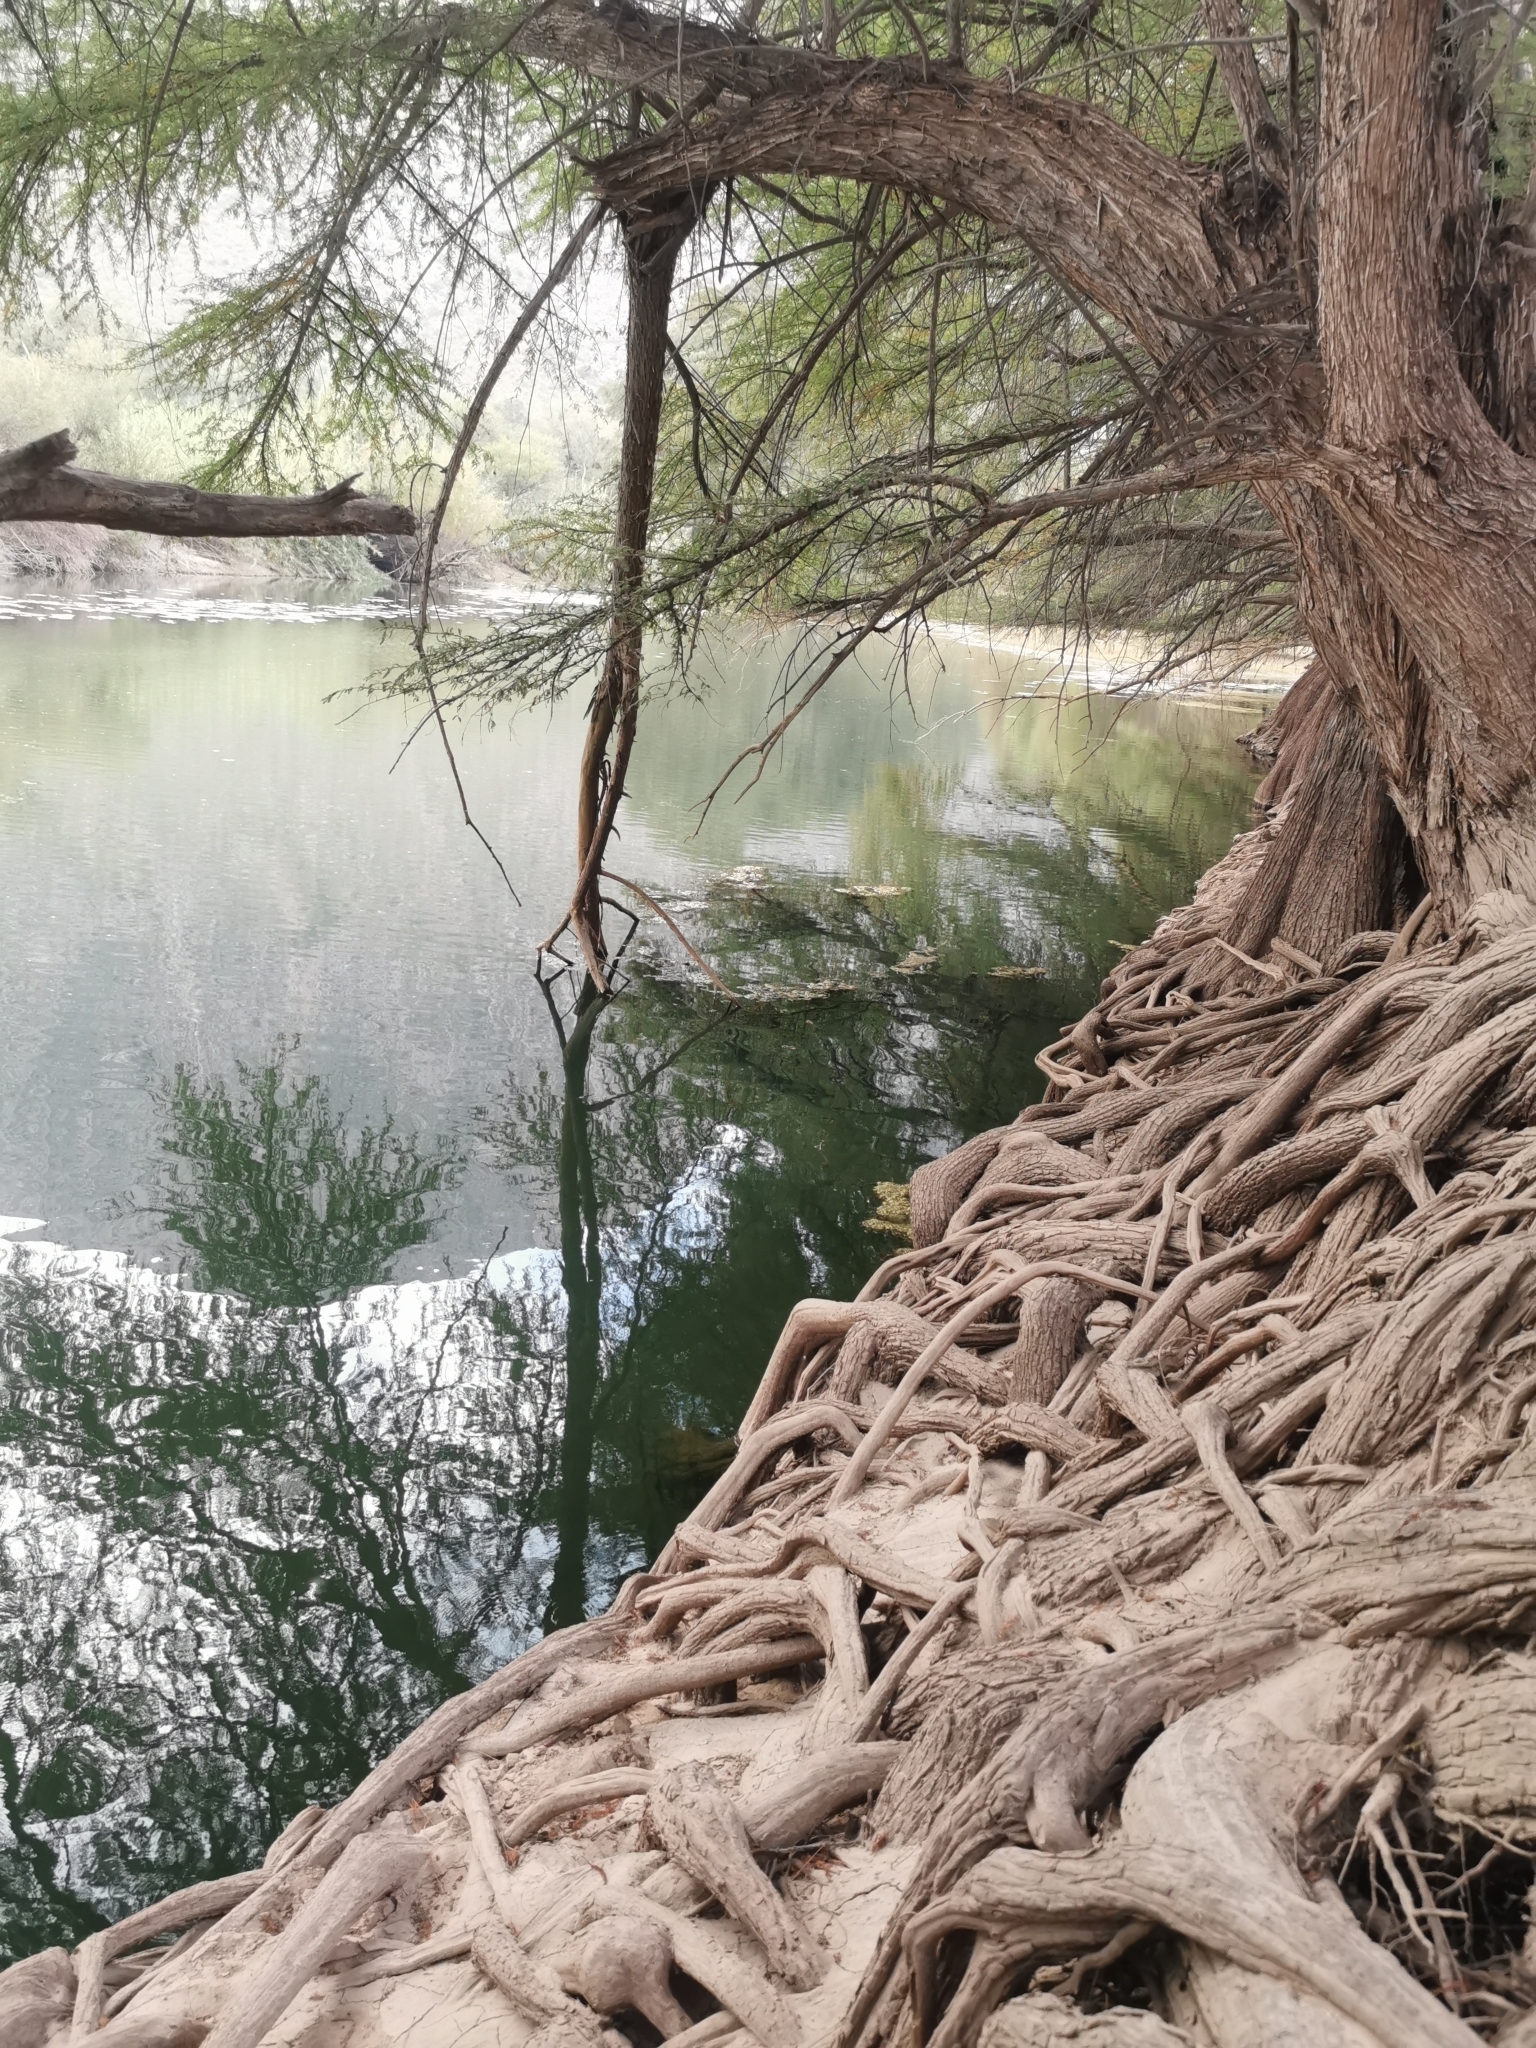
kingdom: Plantae
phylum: Tracheophyta
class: Pinopsida
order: Pinales
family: Cupressaceae
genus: Taxodium
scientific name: Taxodium mucronatum
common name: Montezume bald cypress
